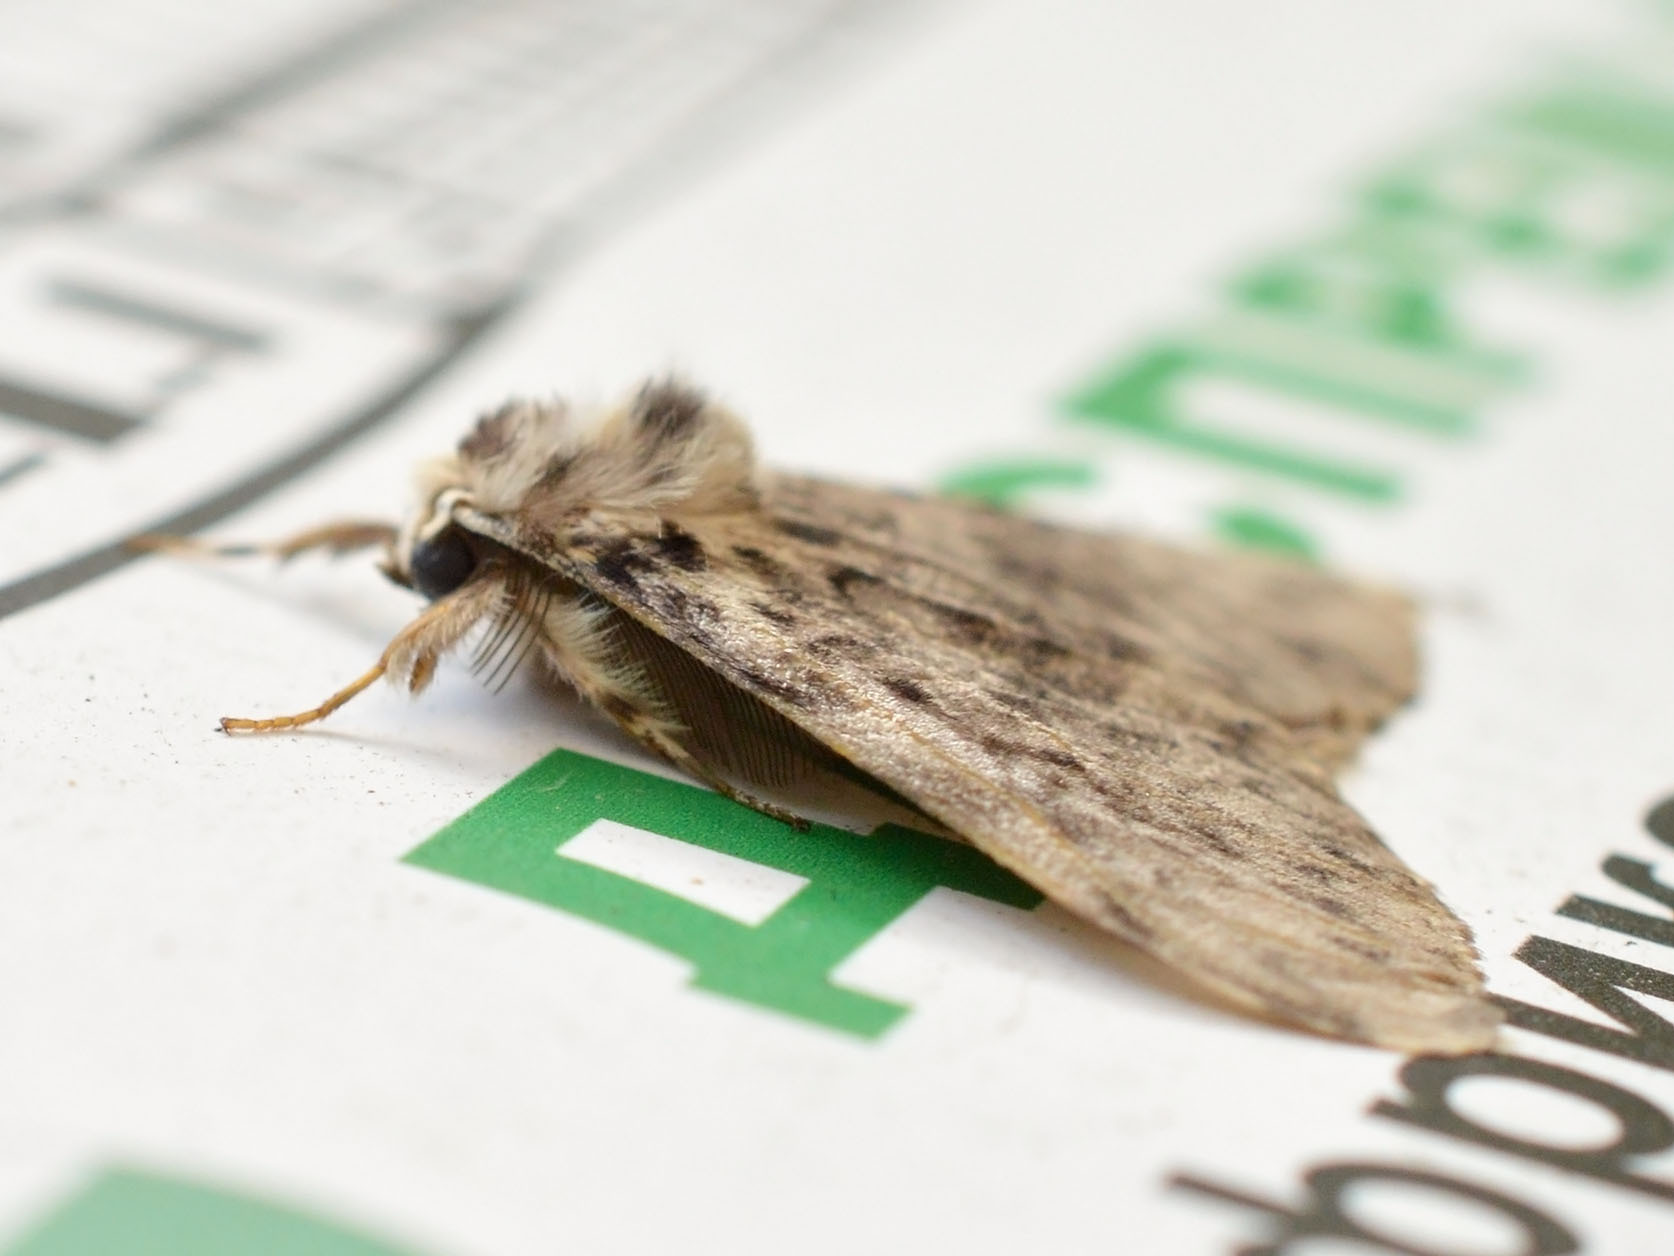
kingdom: Animalia
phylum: Arthropoda
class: Insecta
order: Lepidoptera
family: Erebidae
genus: Lymantria
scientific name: Lymantria monacha
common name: Black arches
